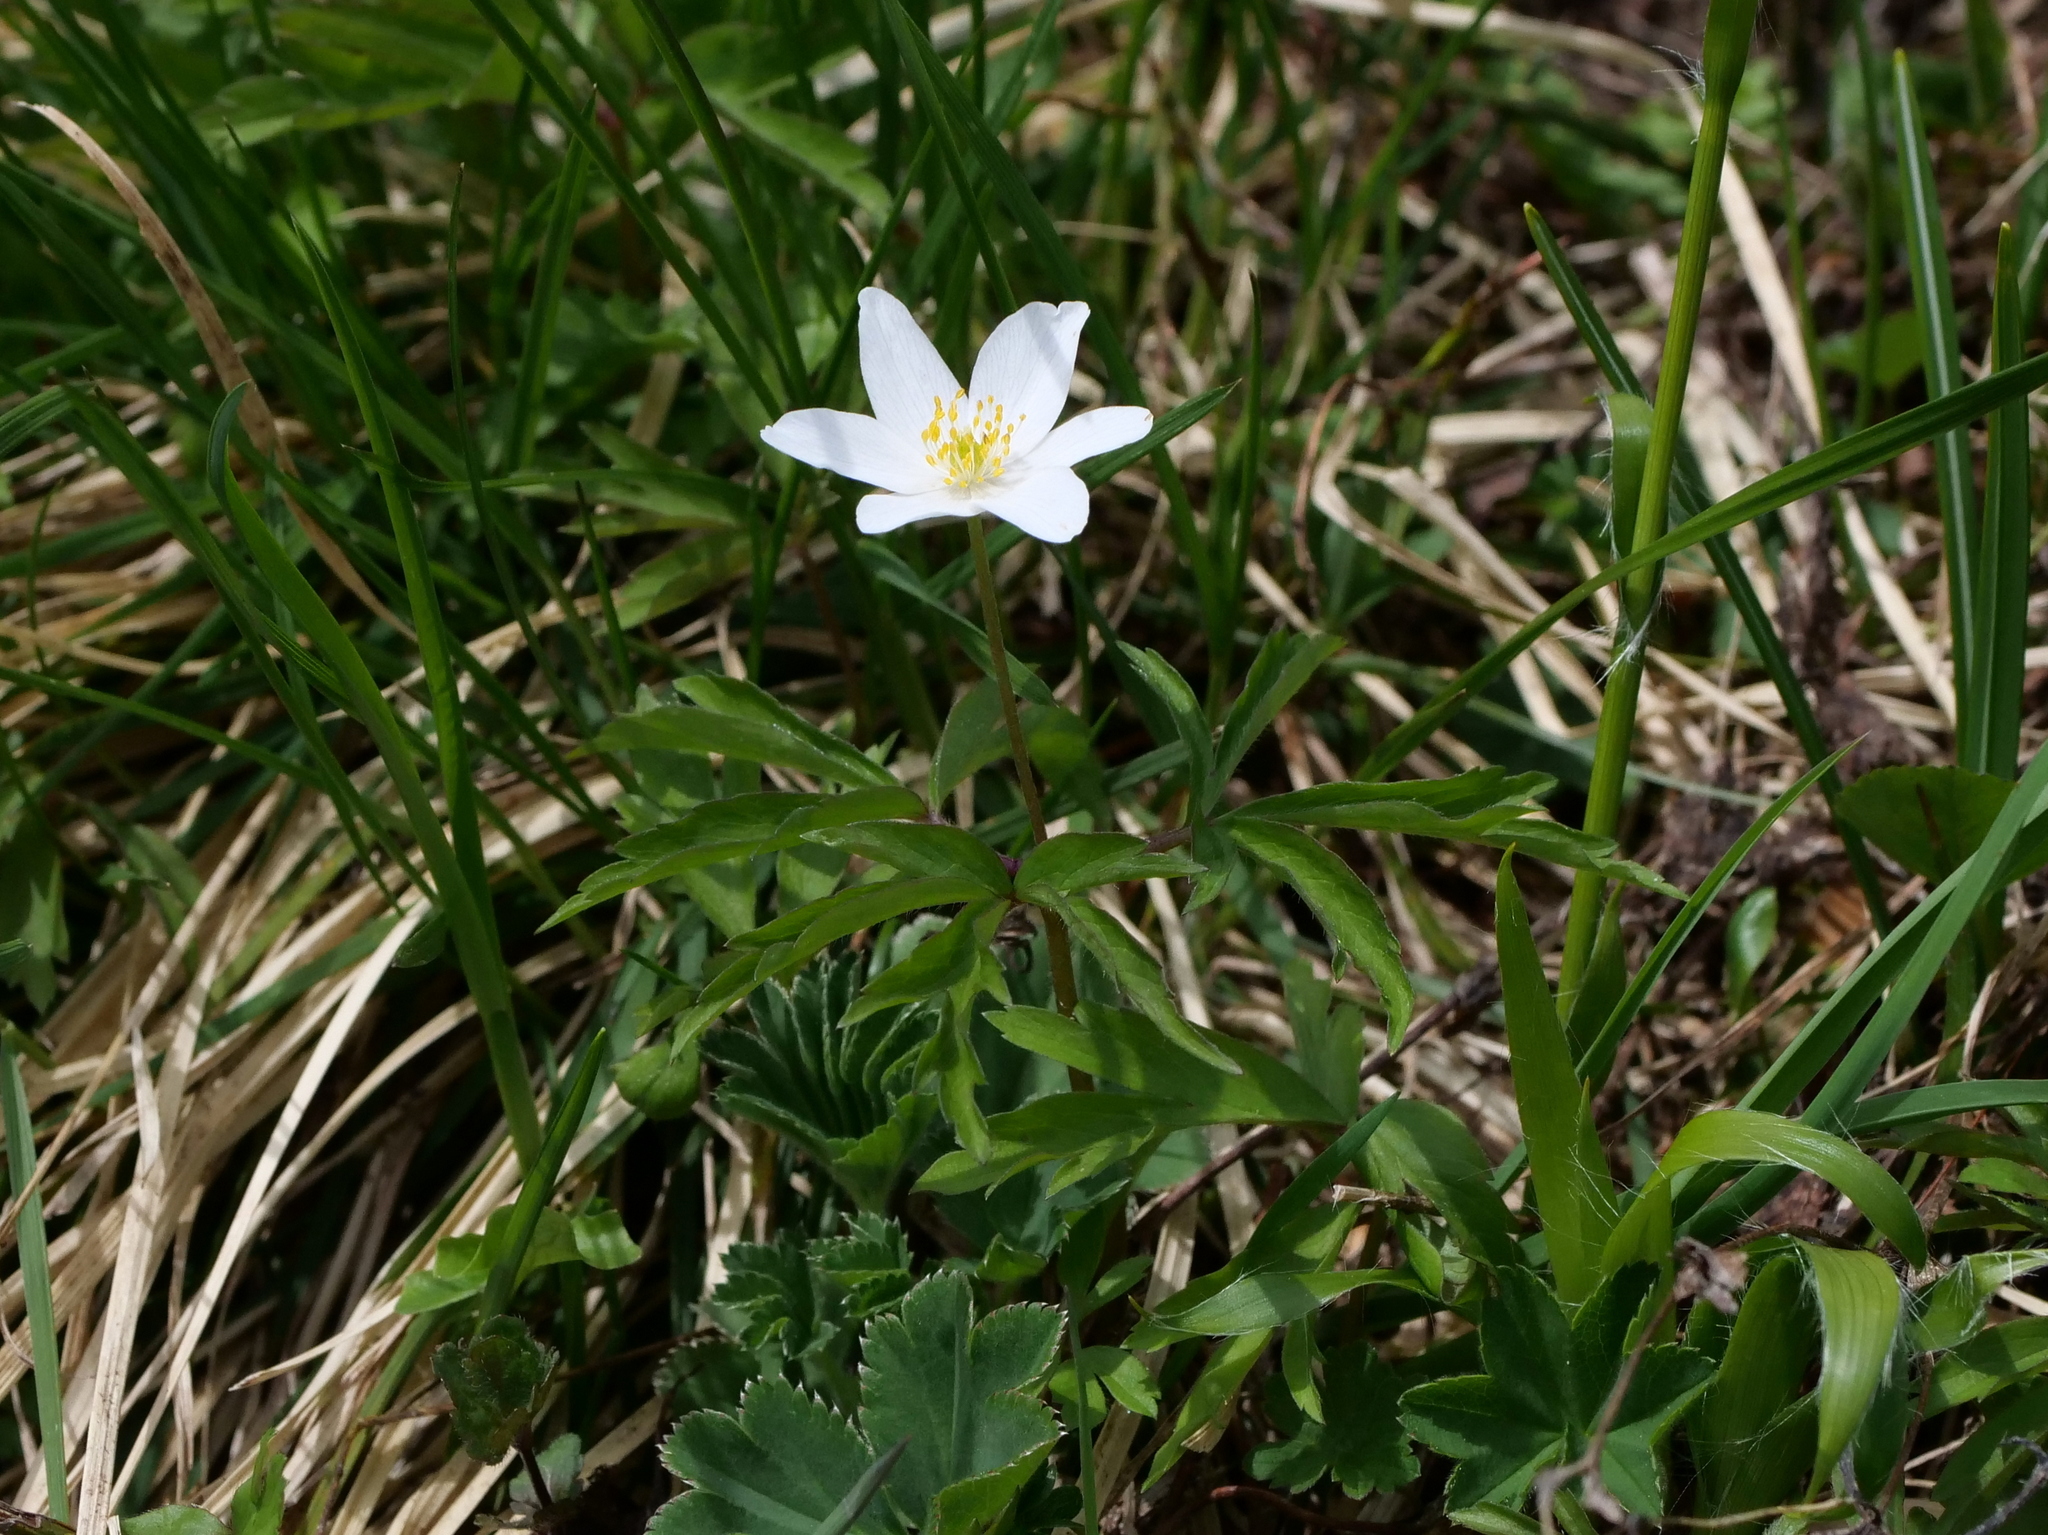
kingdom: Plantae
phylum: Tracheophyta
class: Magnoliopsida
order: Ranunculales
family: Ranunculaceae
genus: Anemone
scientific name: Anemone nemorosa
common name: Wood anemone
